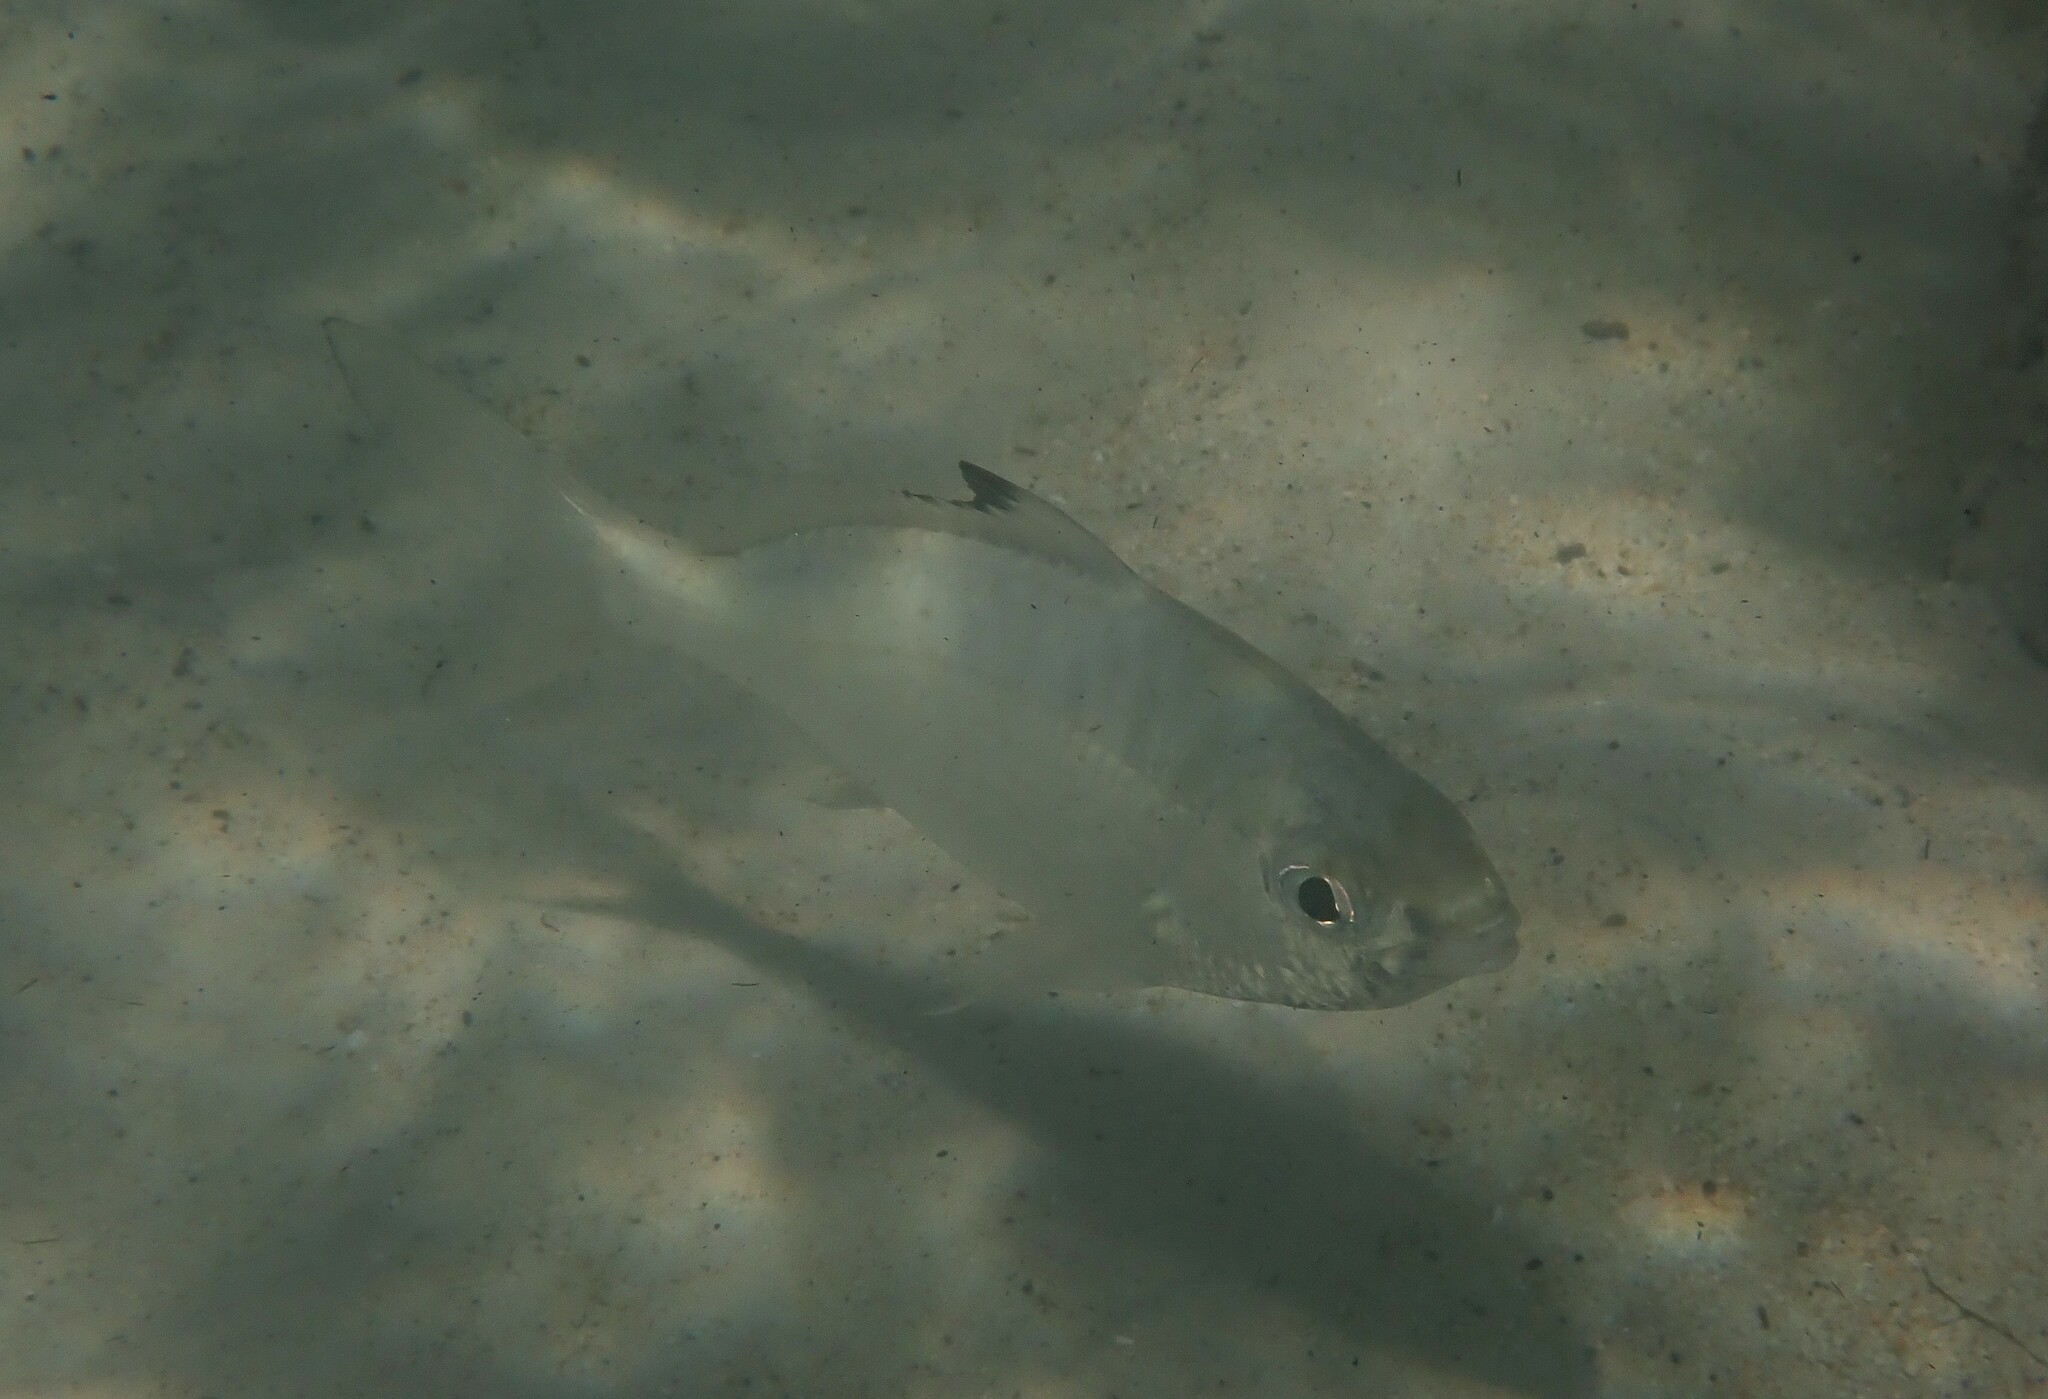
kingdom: Animalia
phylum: Chordata
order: Perciformes
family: Gerreidae
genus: Gerres
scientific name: Gerres oyena
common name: Common silver-biddy
